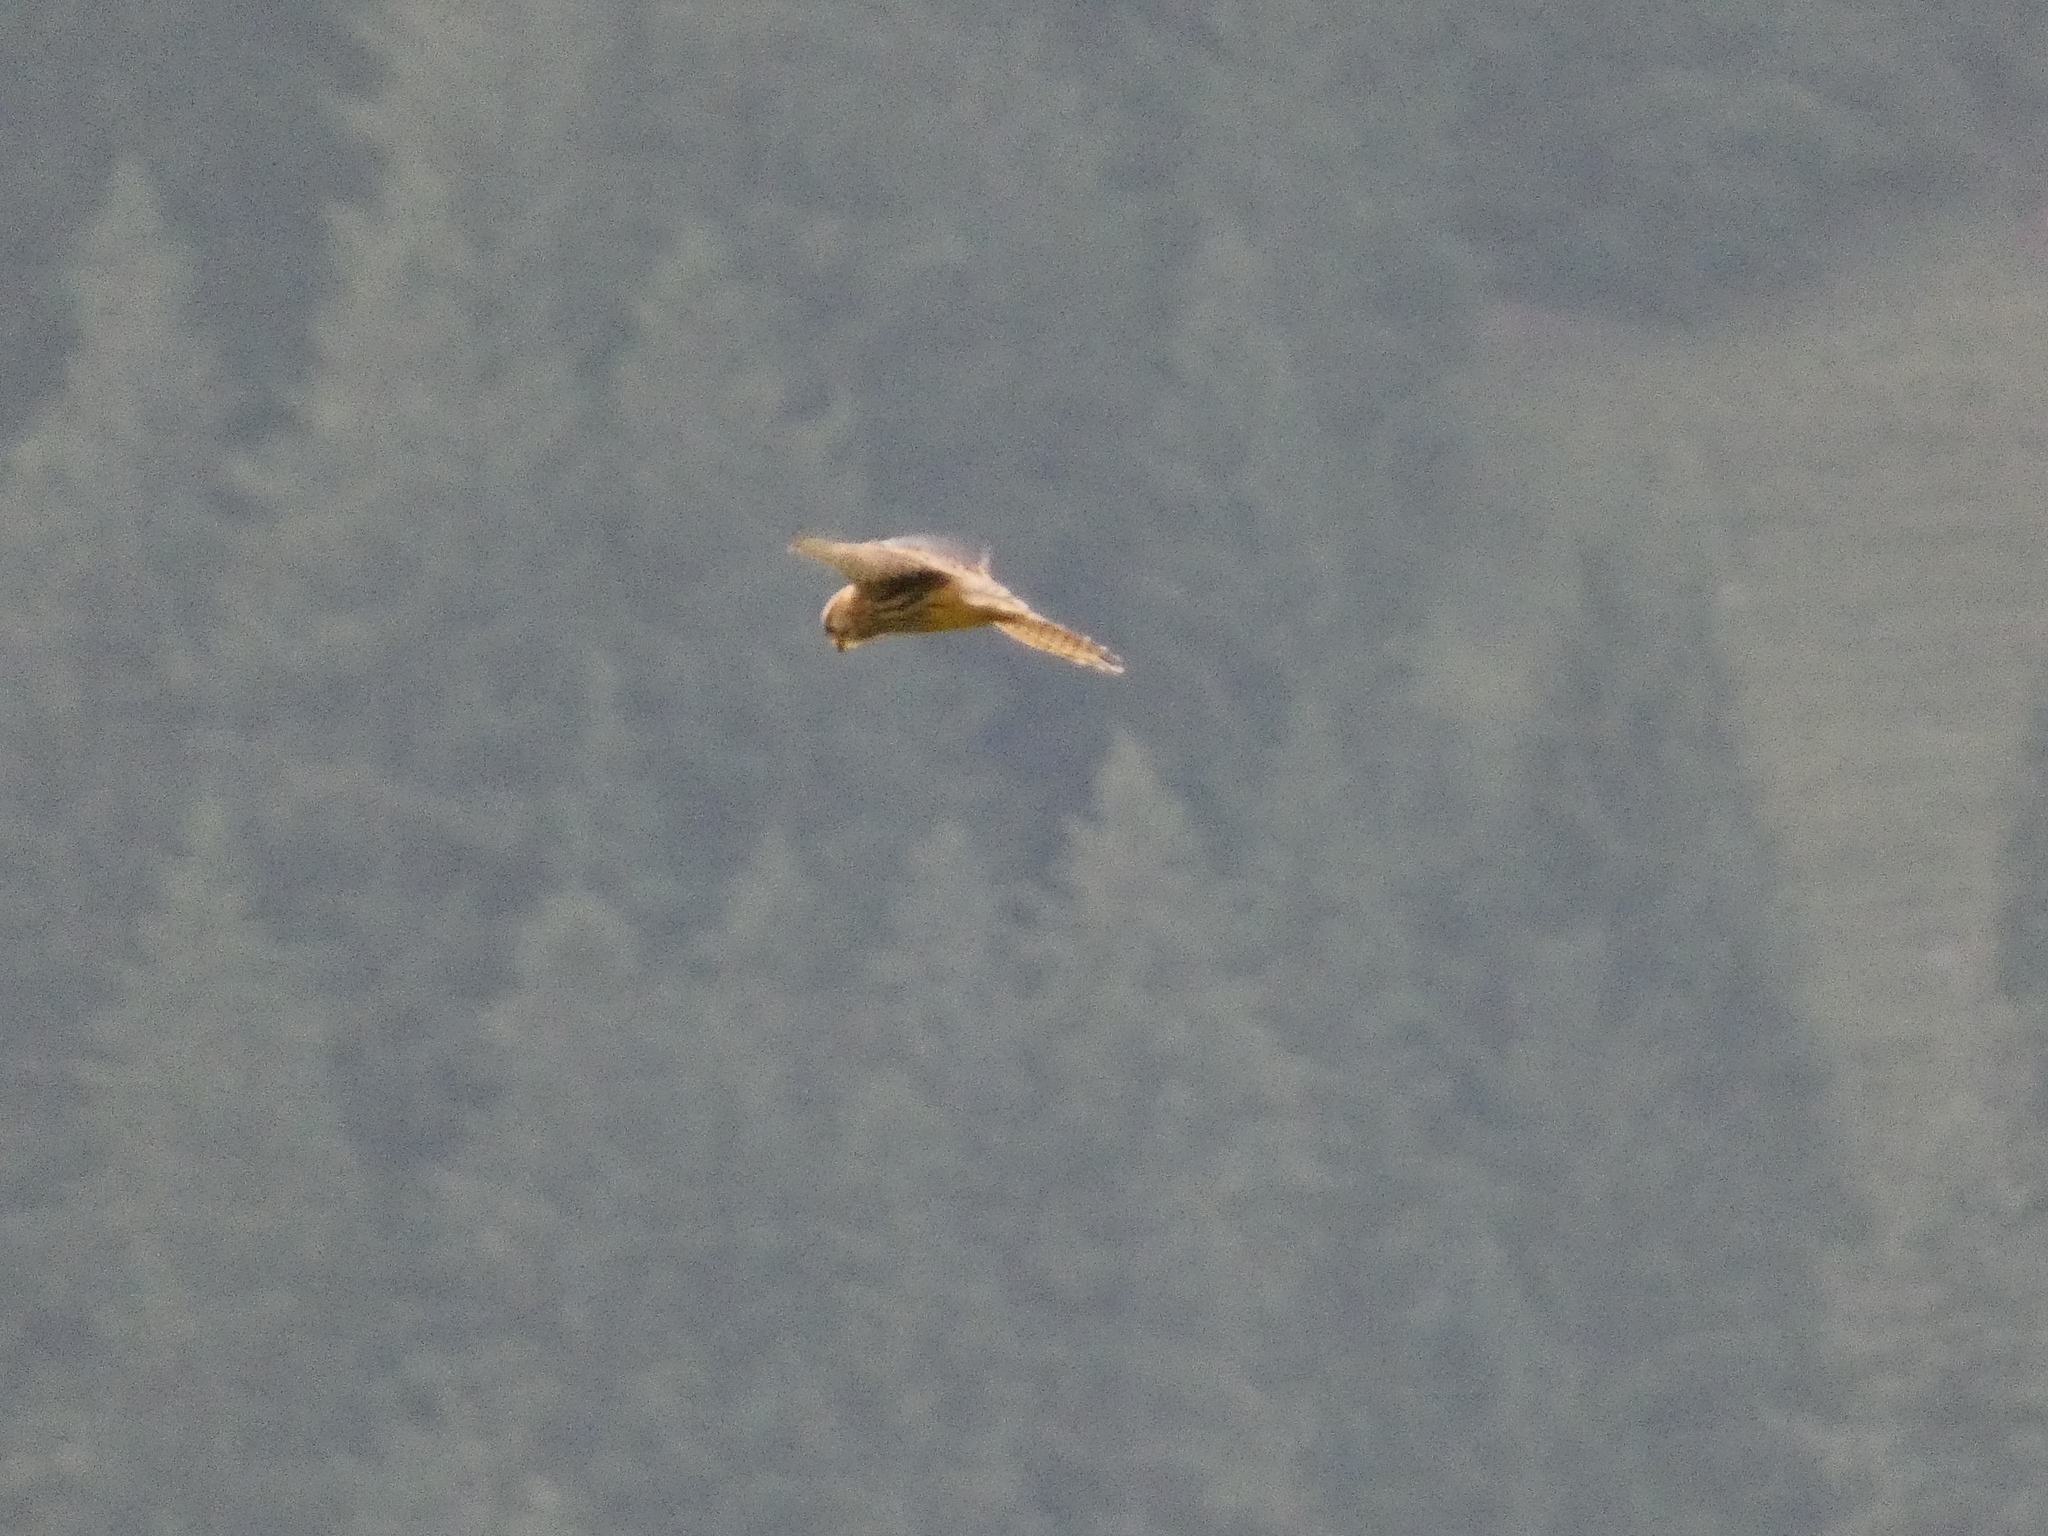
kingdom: Animalia
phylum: Chordata
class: Aves
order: Falconiformes
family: Falconidae
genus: Falco
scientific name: Falco tinnunculus
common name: Common kestrel
